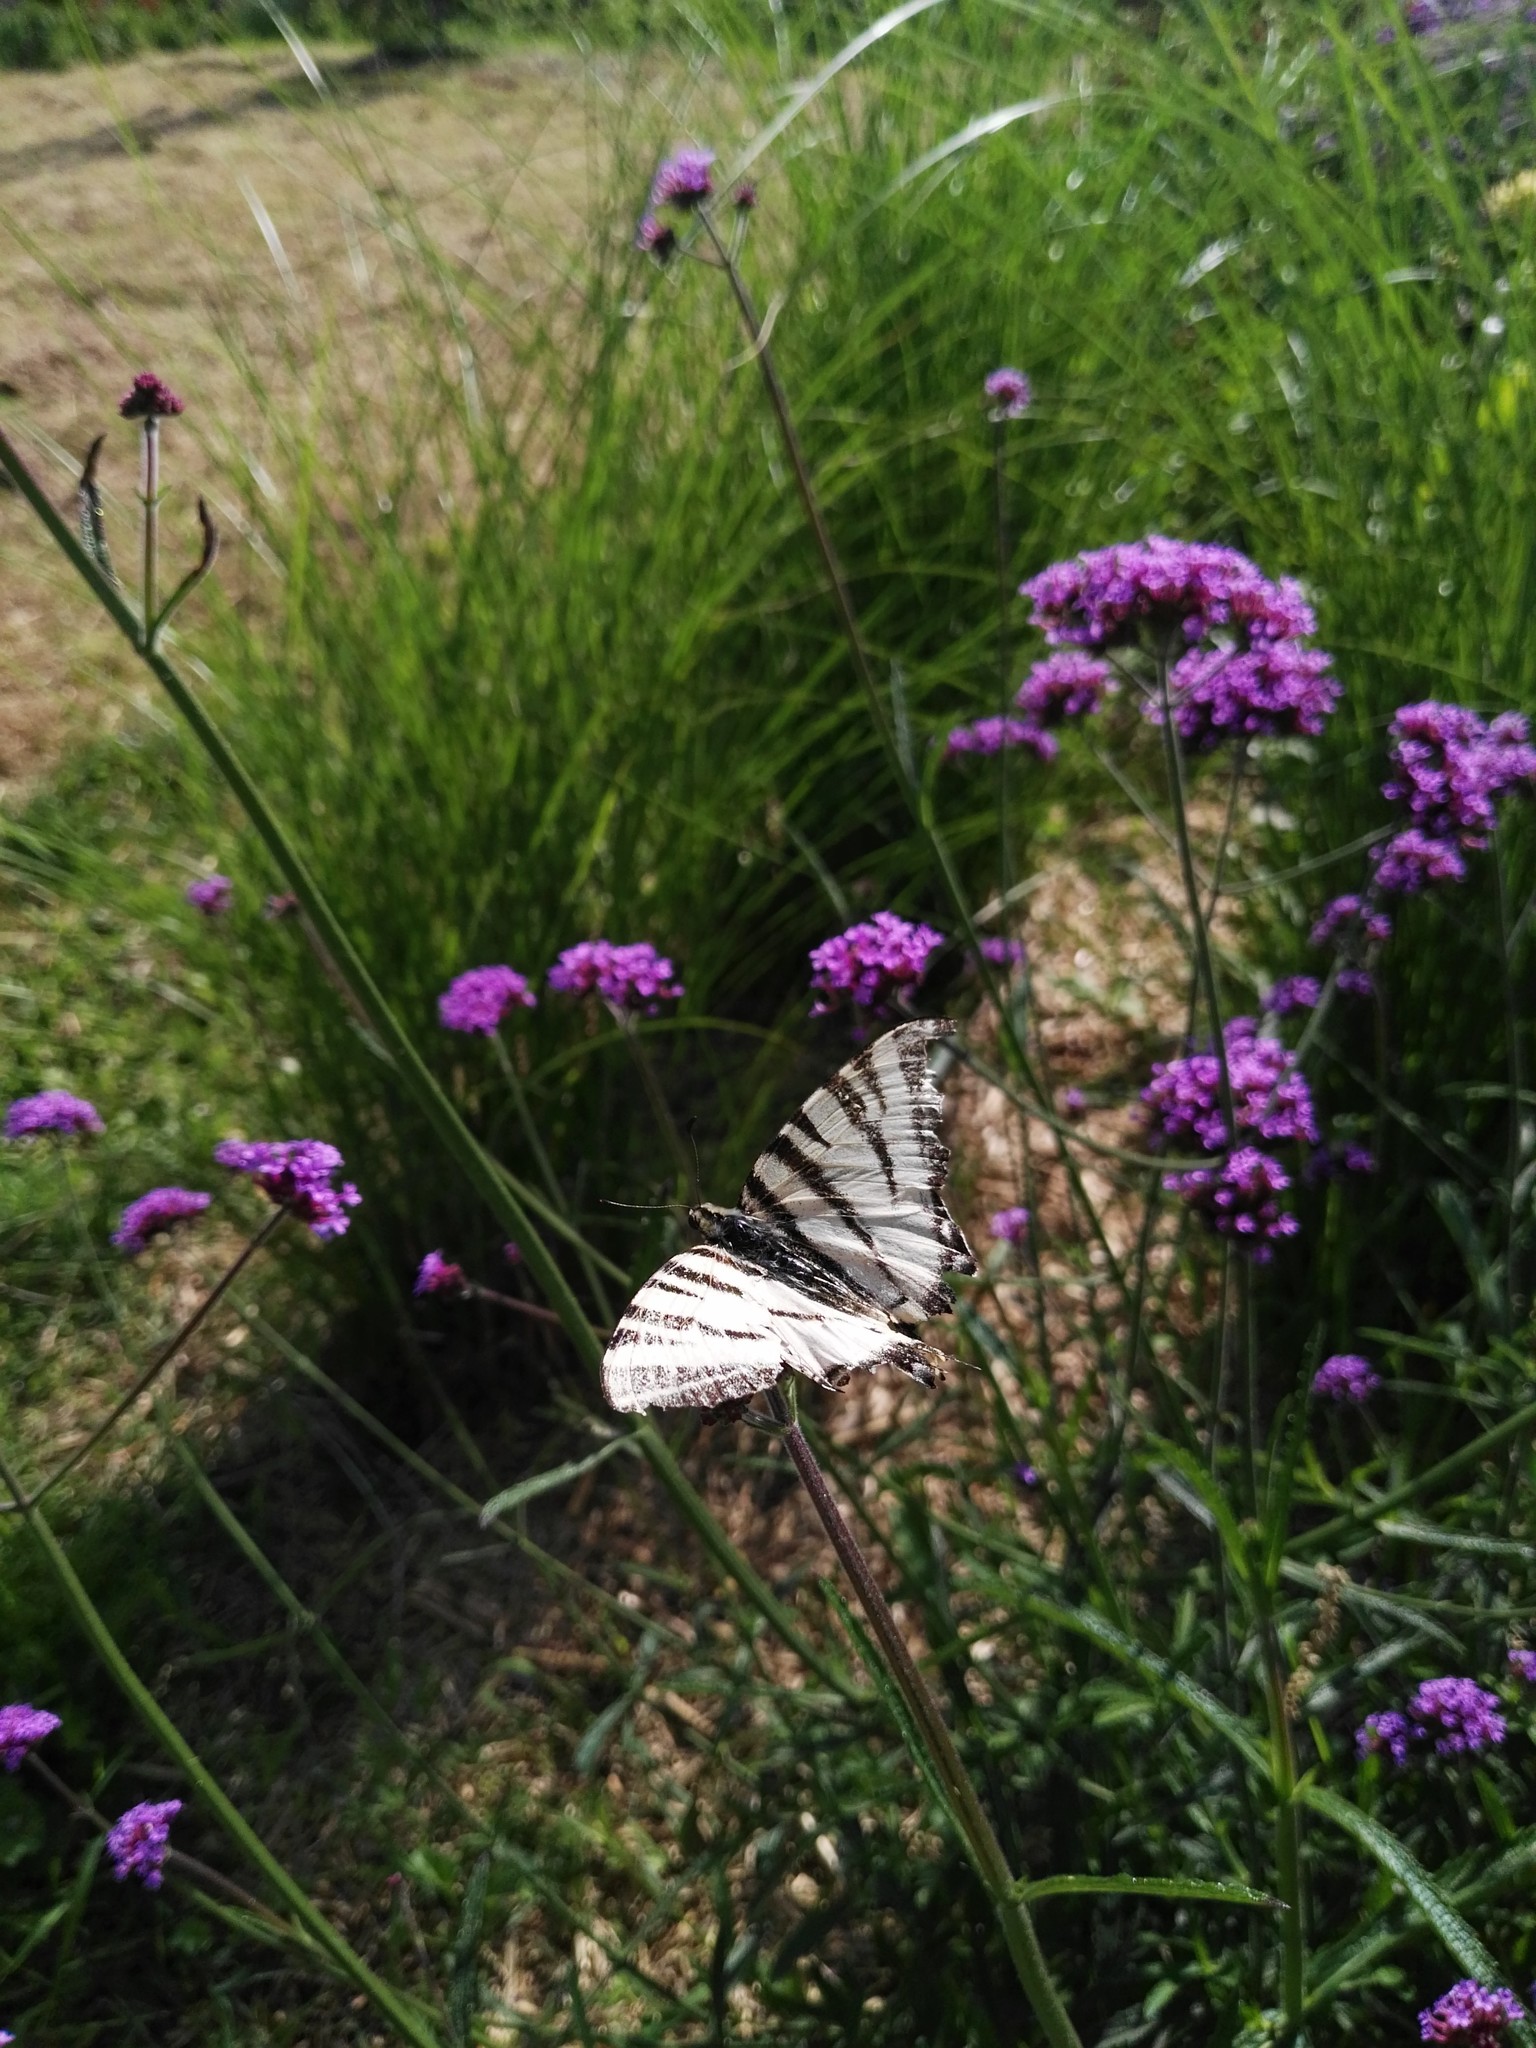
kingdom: Animalia
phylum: Arthropoda
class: Insecta
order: Lepidoptera
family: Papilionidae
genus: Iphiclides
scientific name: Iphiclides podalirius
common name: Scarce swallowtail
